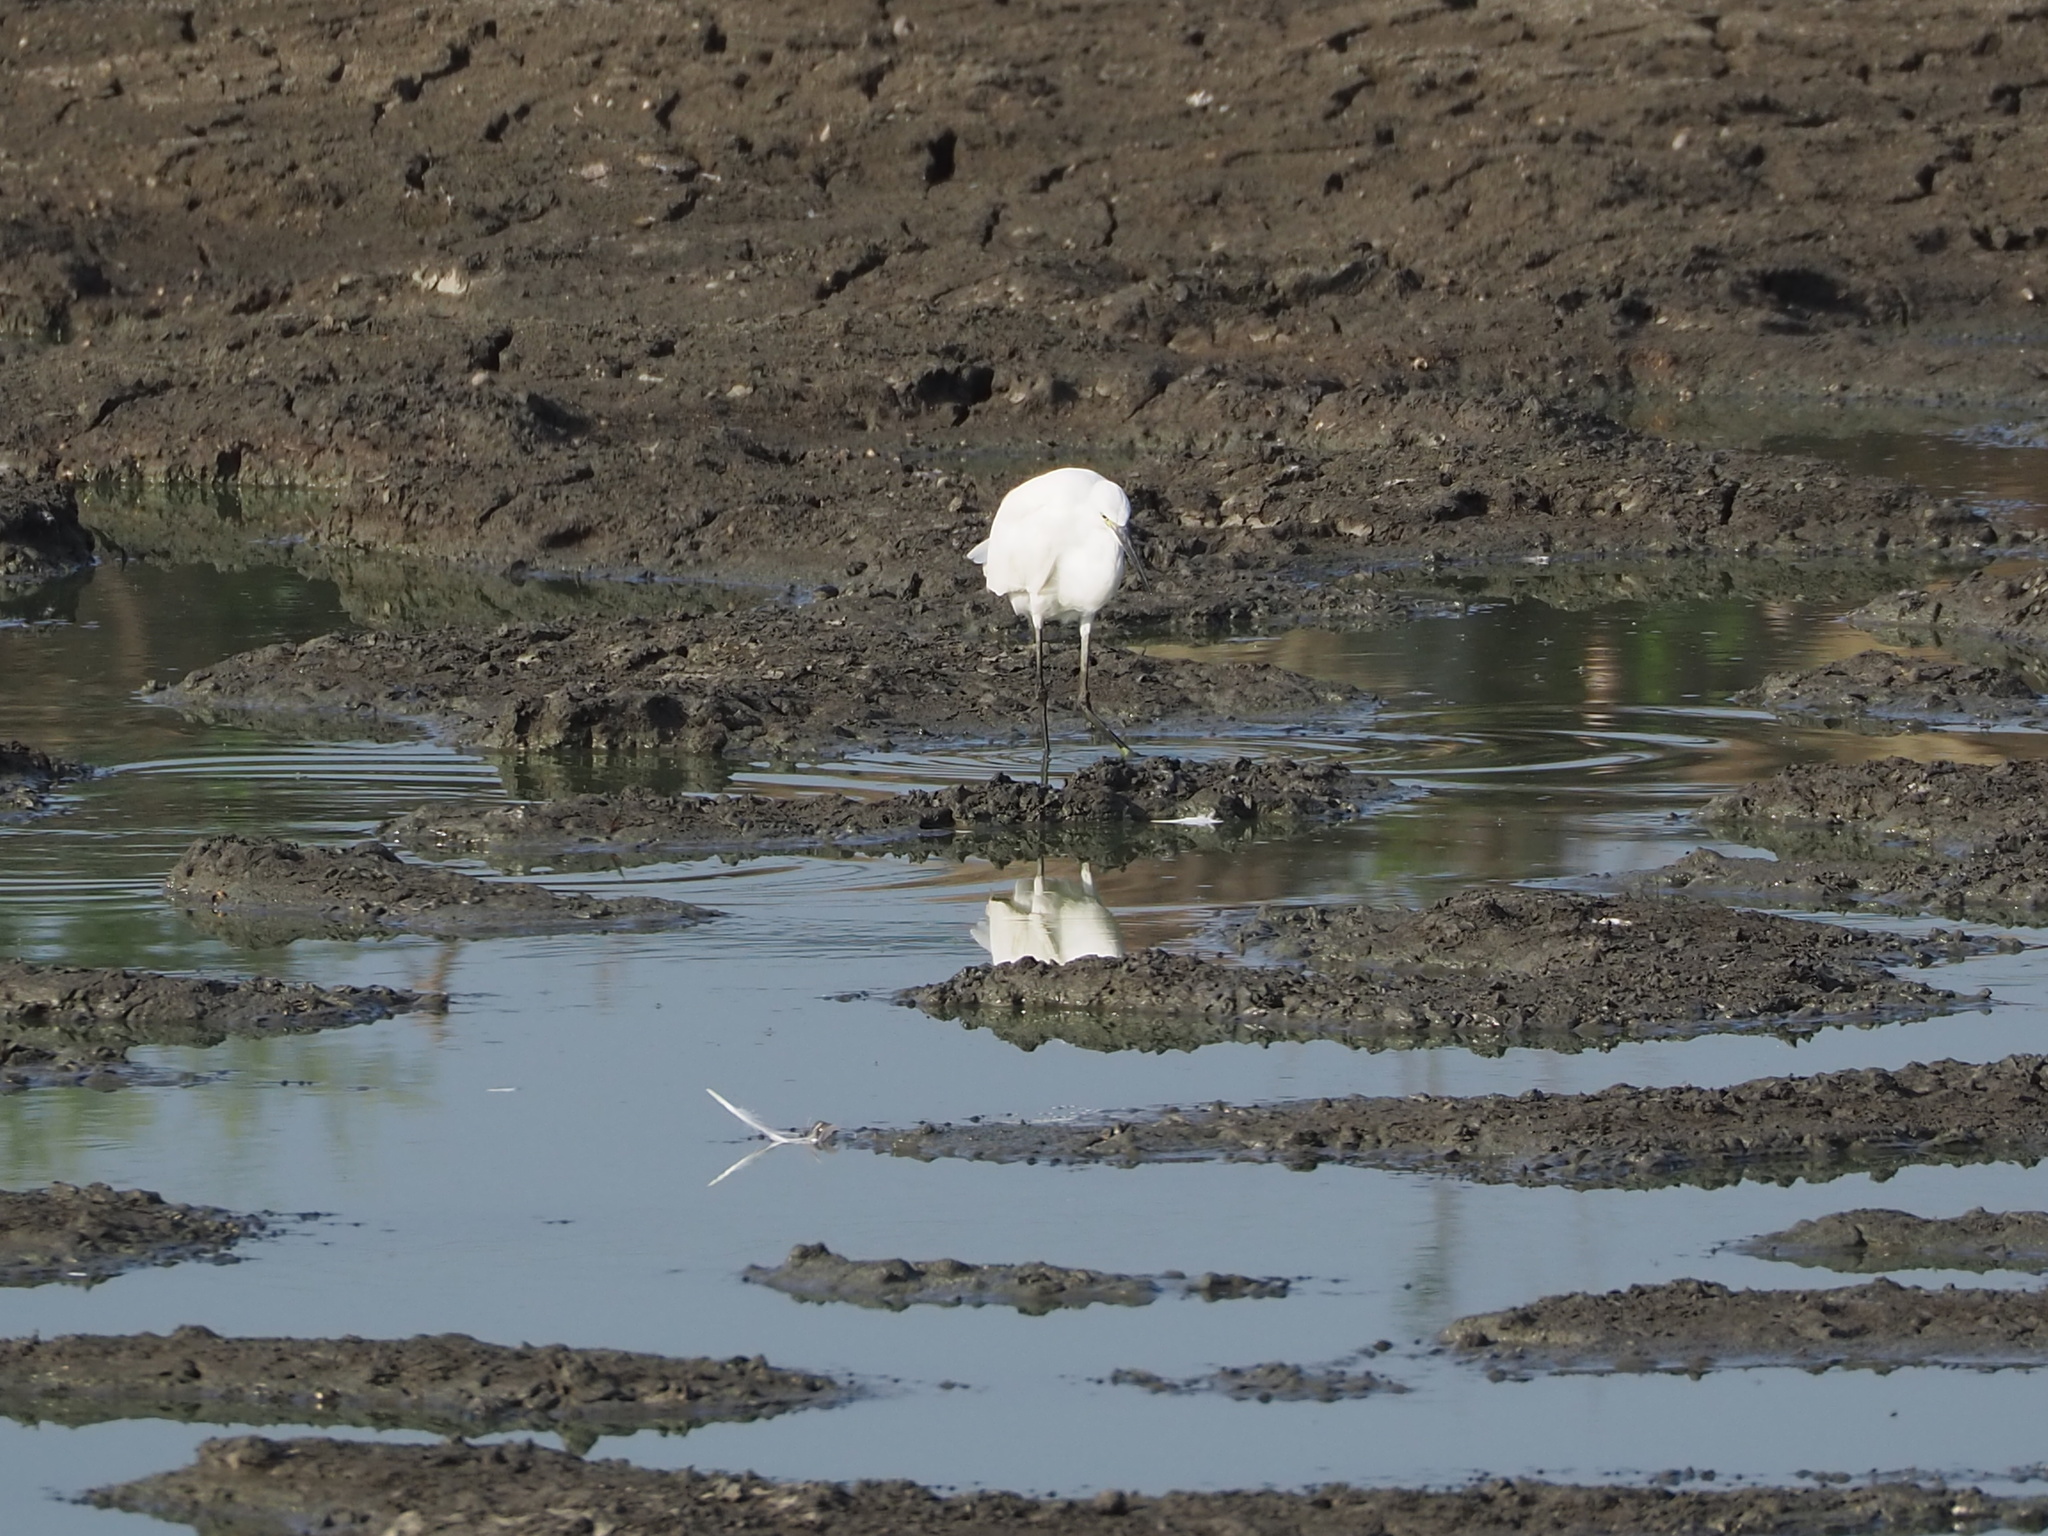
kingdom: Animalia
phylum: Chordata
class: Aves
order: Pelecaniformes
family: Ardeidae
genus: Egretta
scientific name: Egretta garzetta
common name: Little egret
